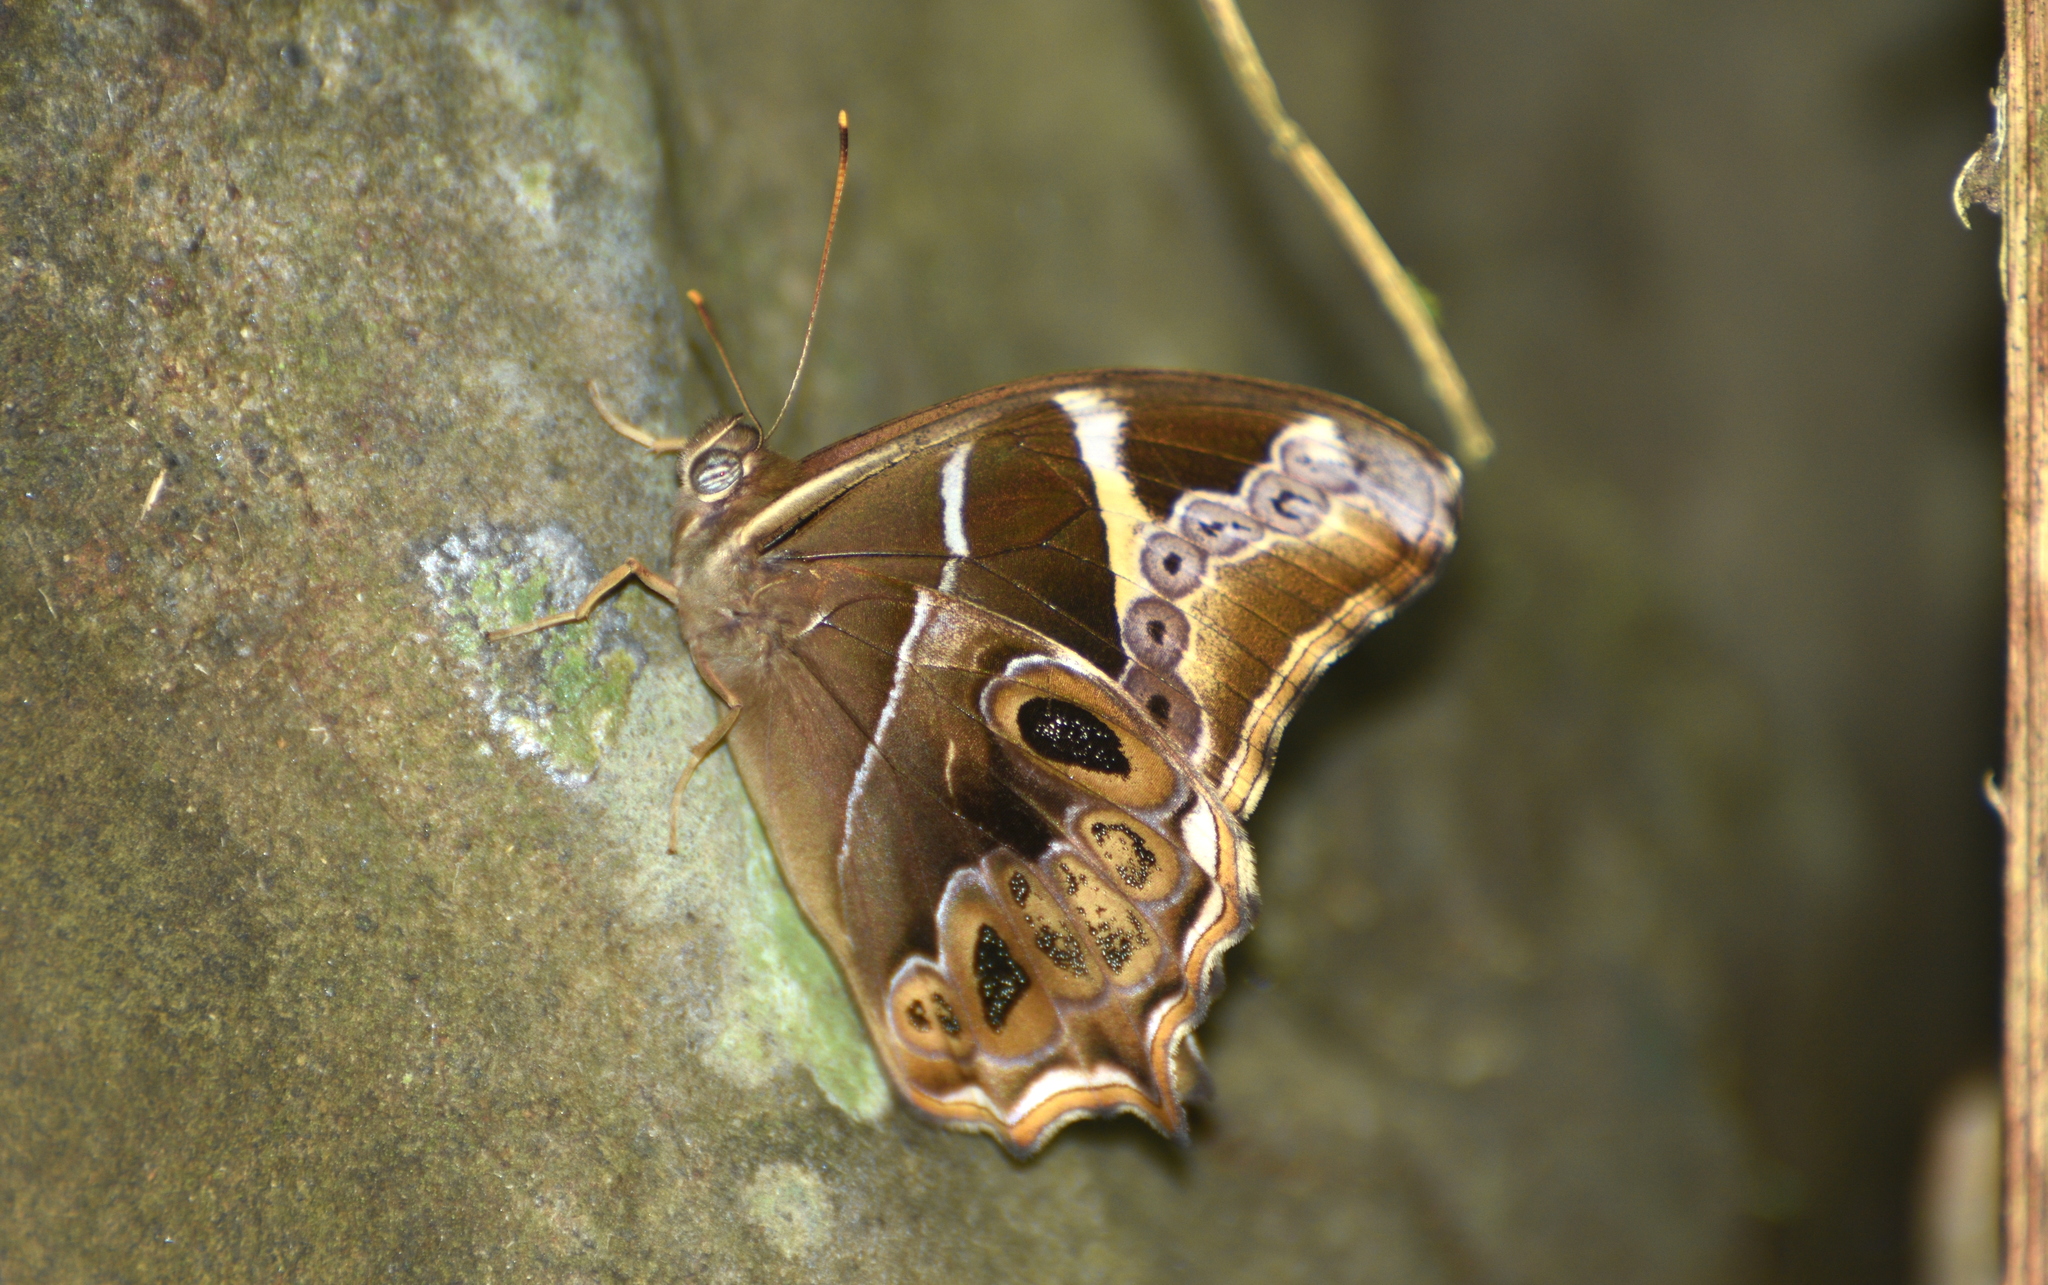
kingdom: Animalia
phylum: Arthropoda
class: Insecta
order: Lepidoptera
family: Nymphalidae
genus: Lethe
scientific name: Lethe europa
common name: Bamboo treebrown
